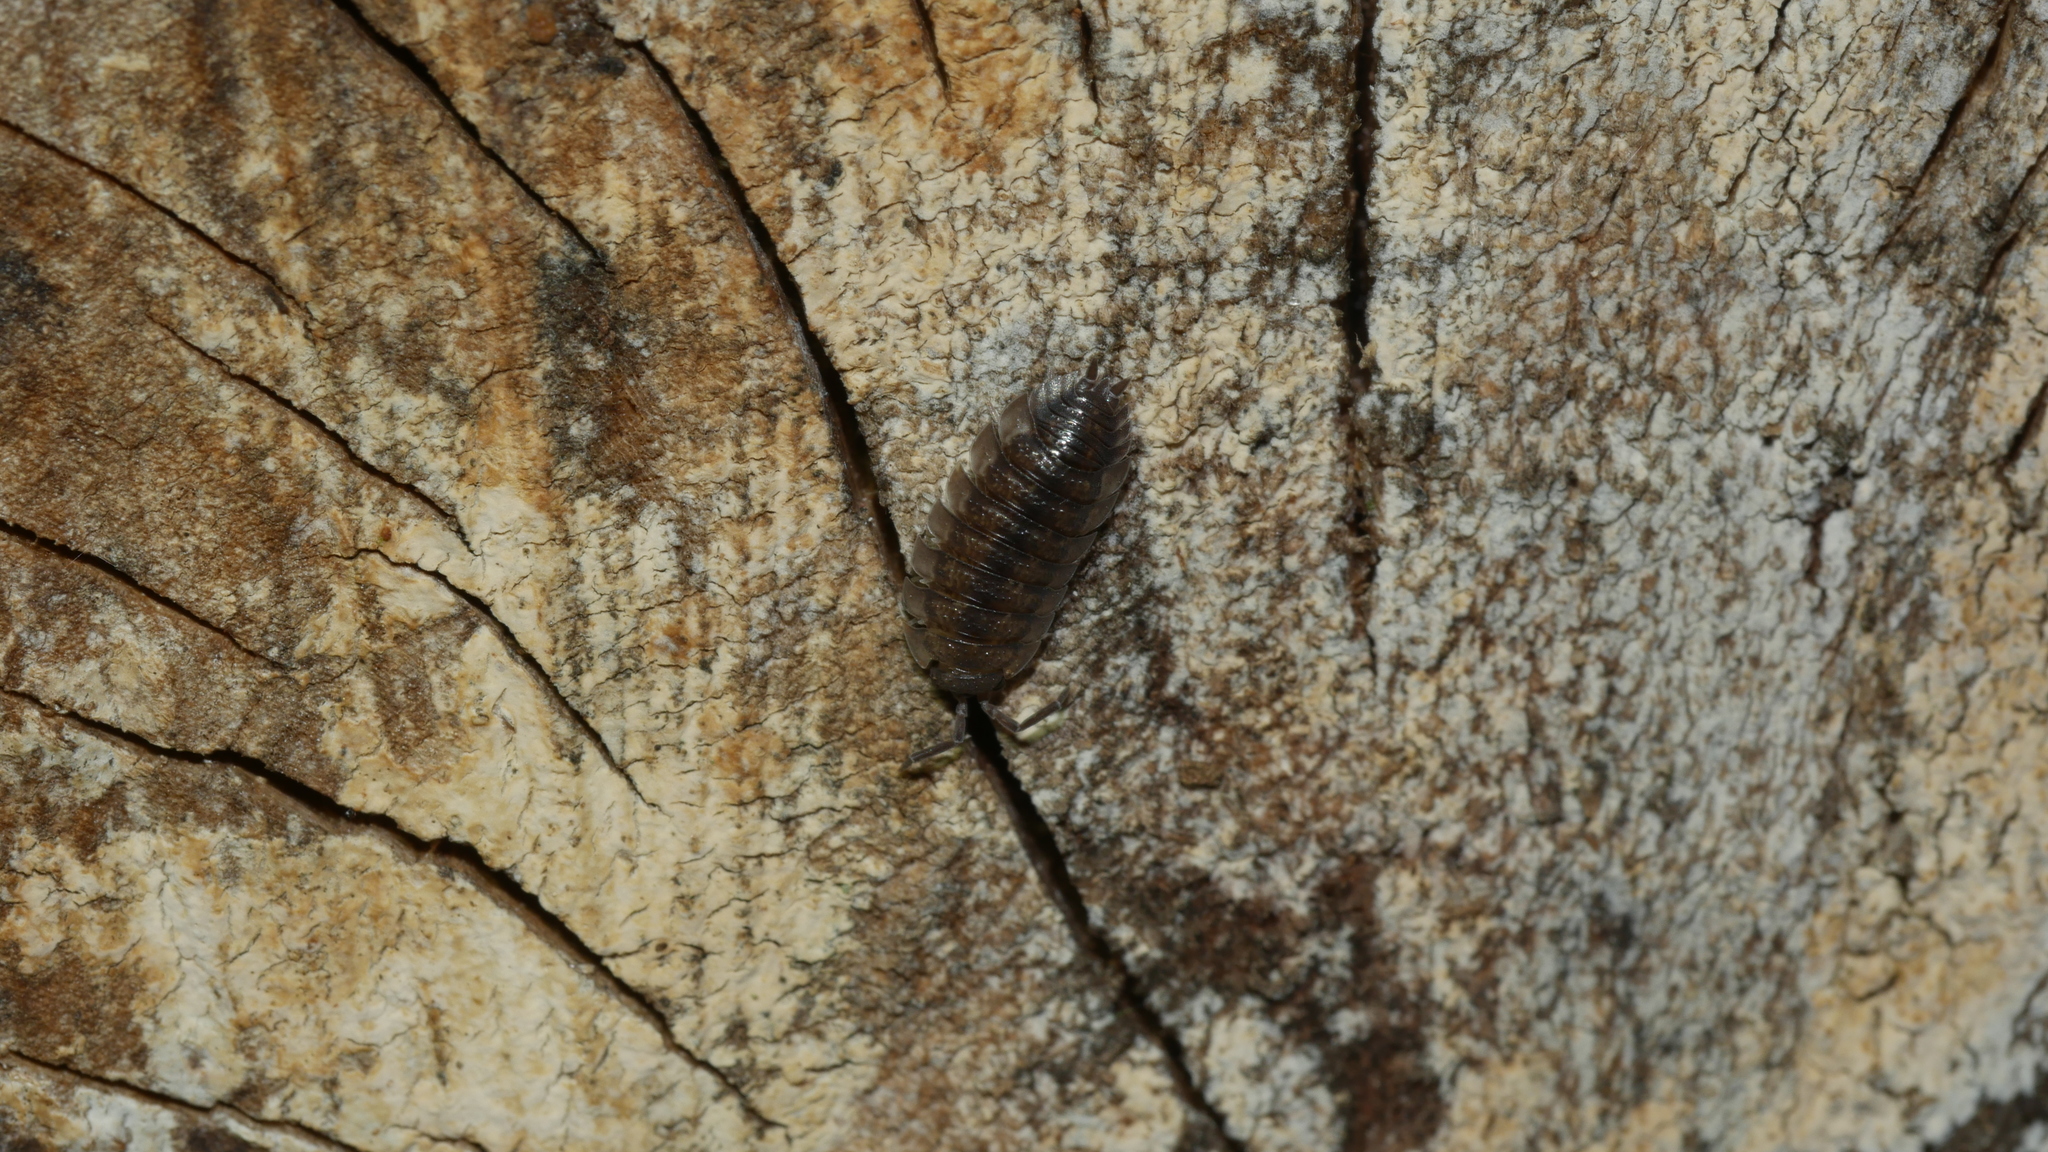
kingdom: Animalia
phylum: Arthropoda
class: Malacostraca
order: Isopoda
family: Porcellionidae
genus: Porcellio
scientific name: Porcellio scaber
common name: Common rough woodlouse
